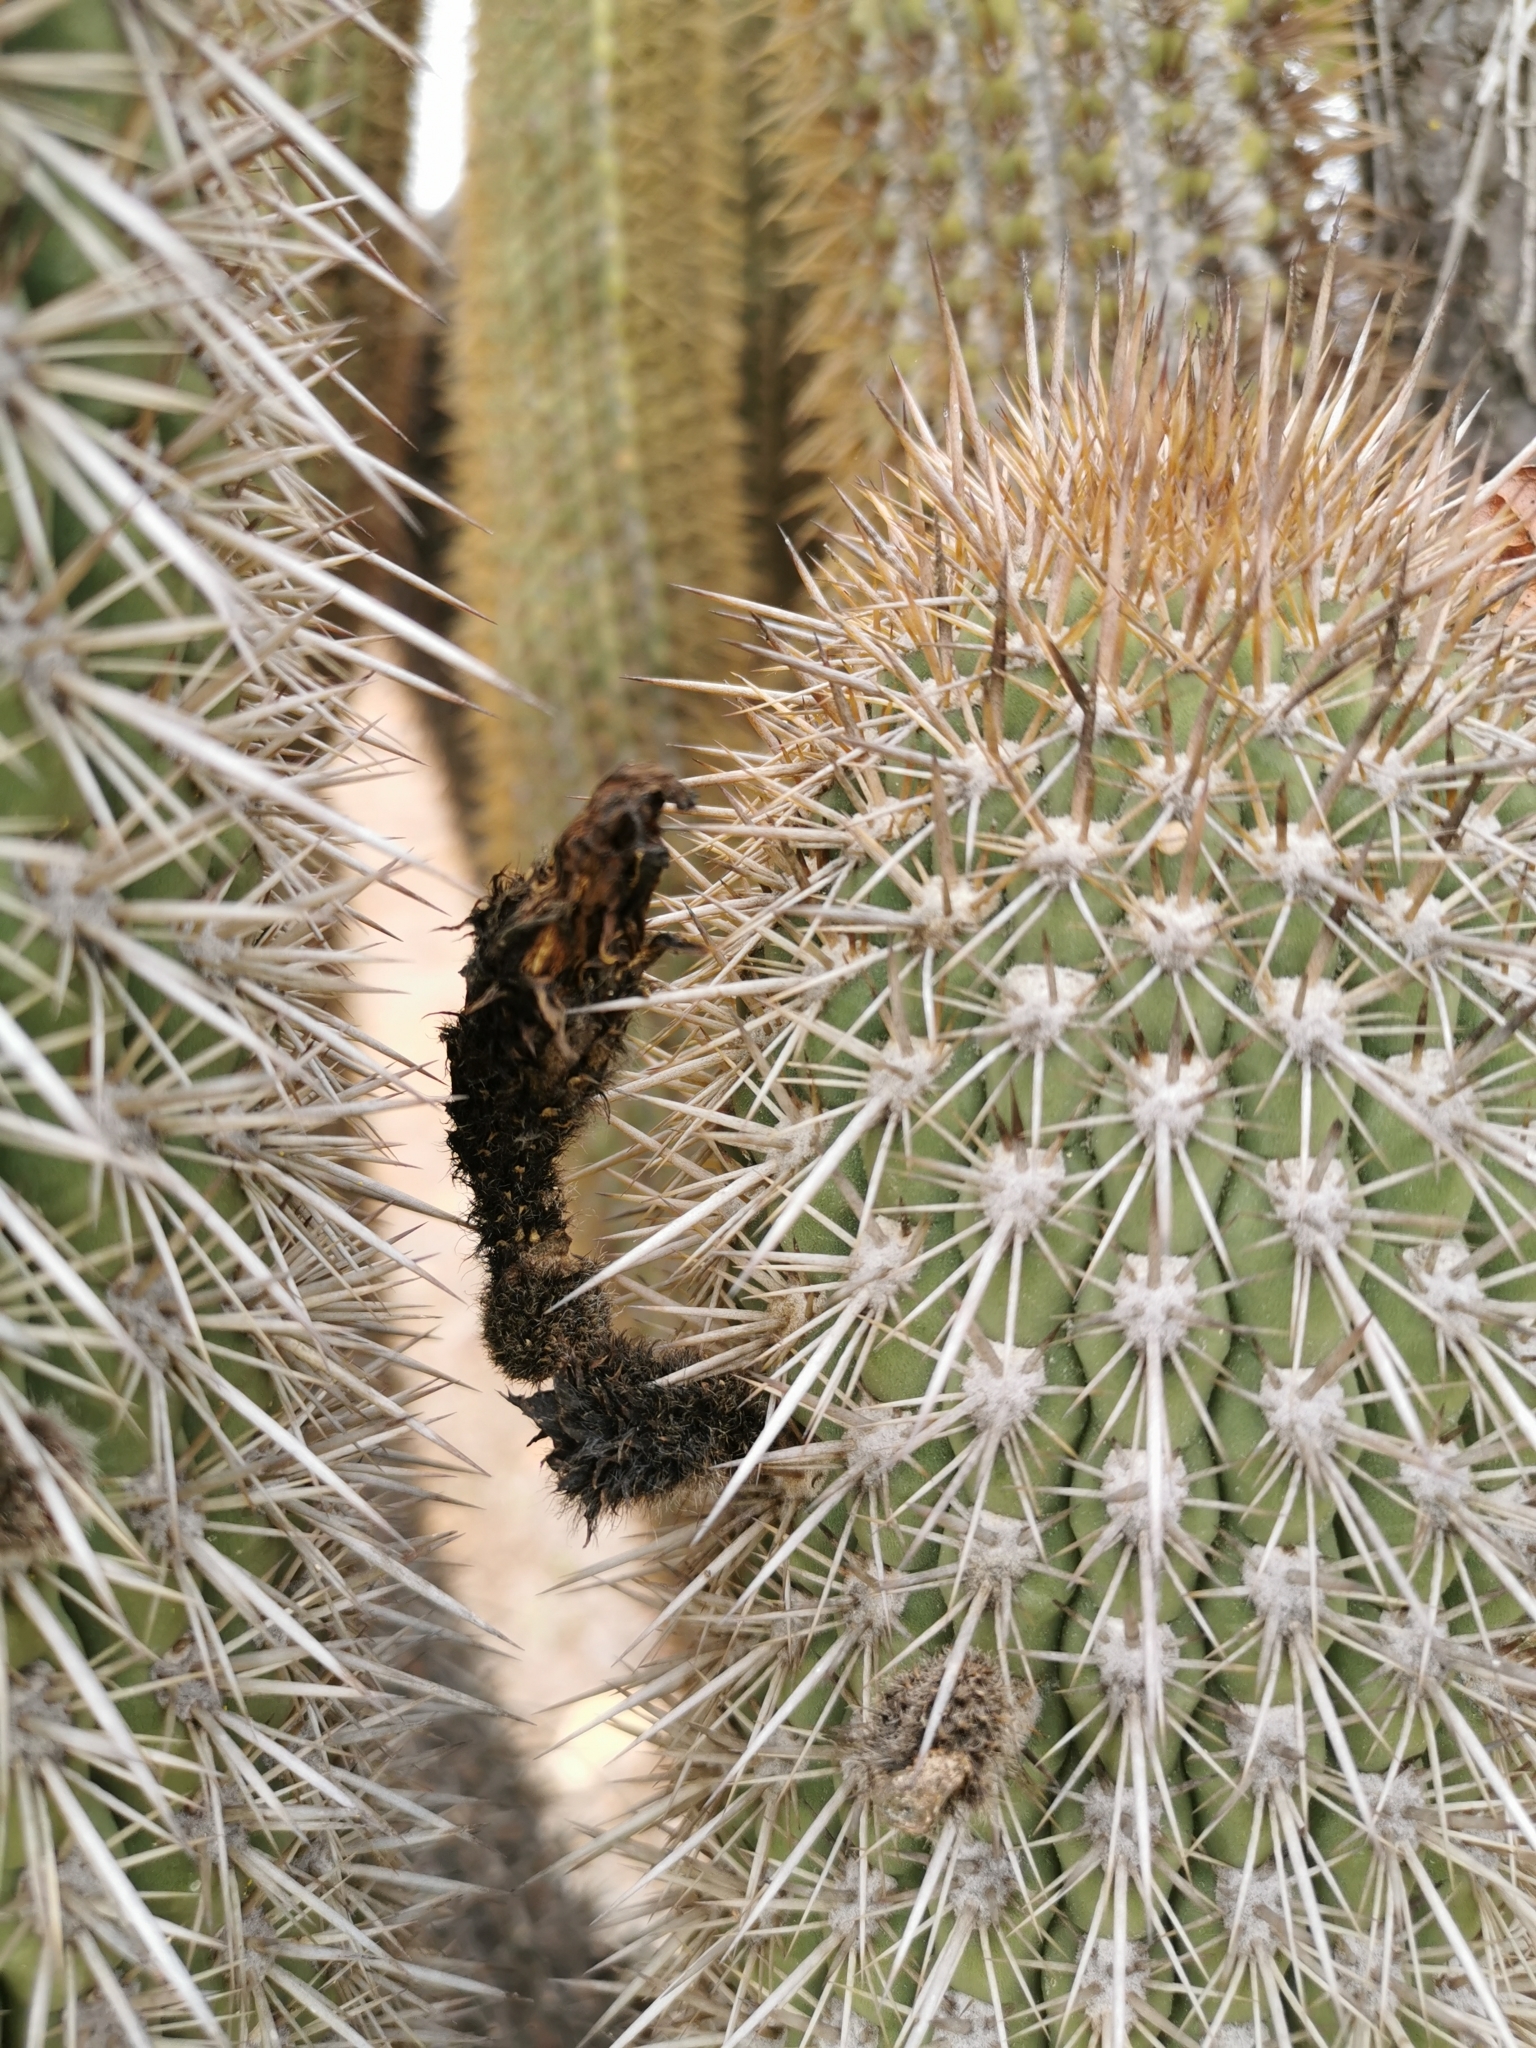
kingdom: Plantae
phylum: Tracheophyta
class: Magnoliopsida
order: Caryophyllales
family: Cactaceae
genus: Leucostele
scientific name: Leucostele chiloensis
